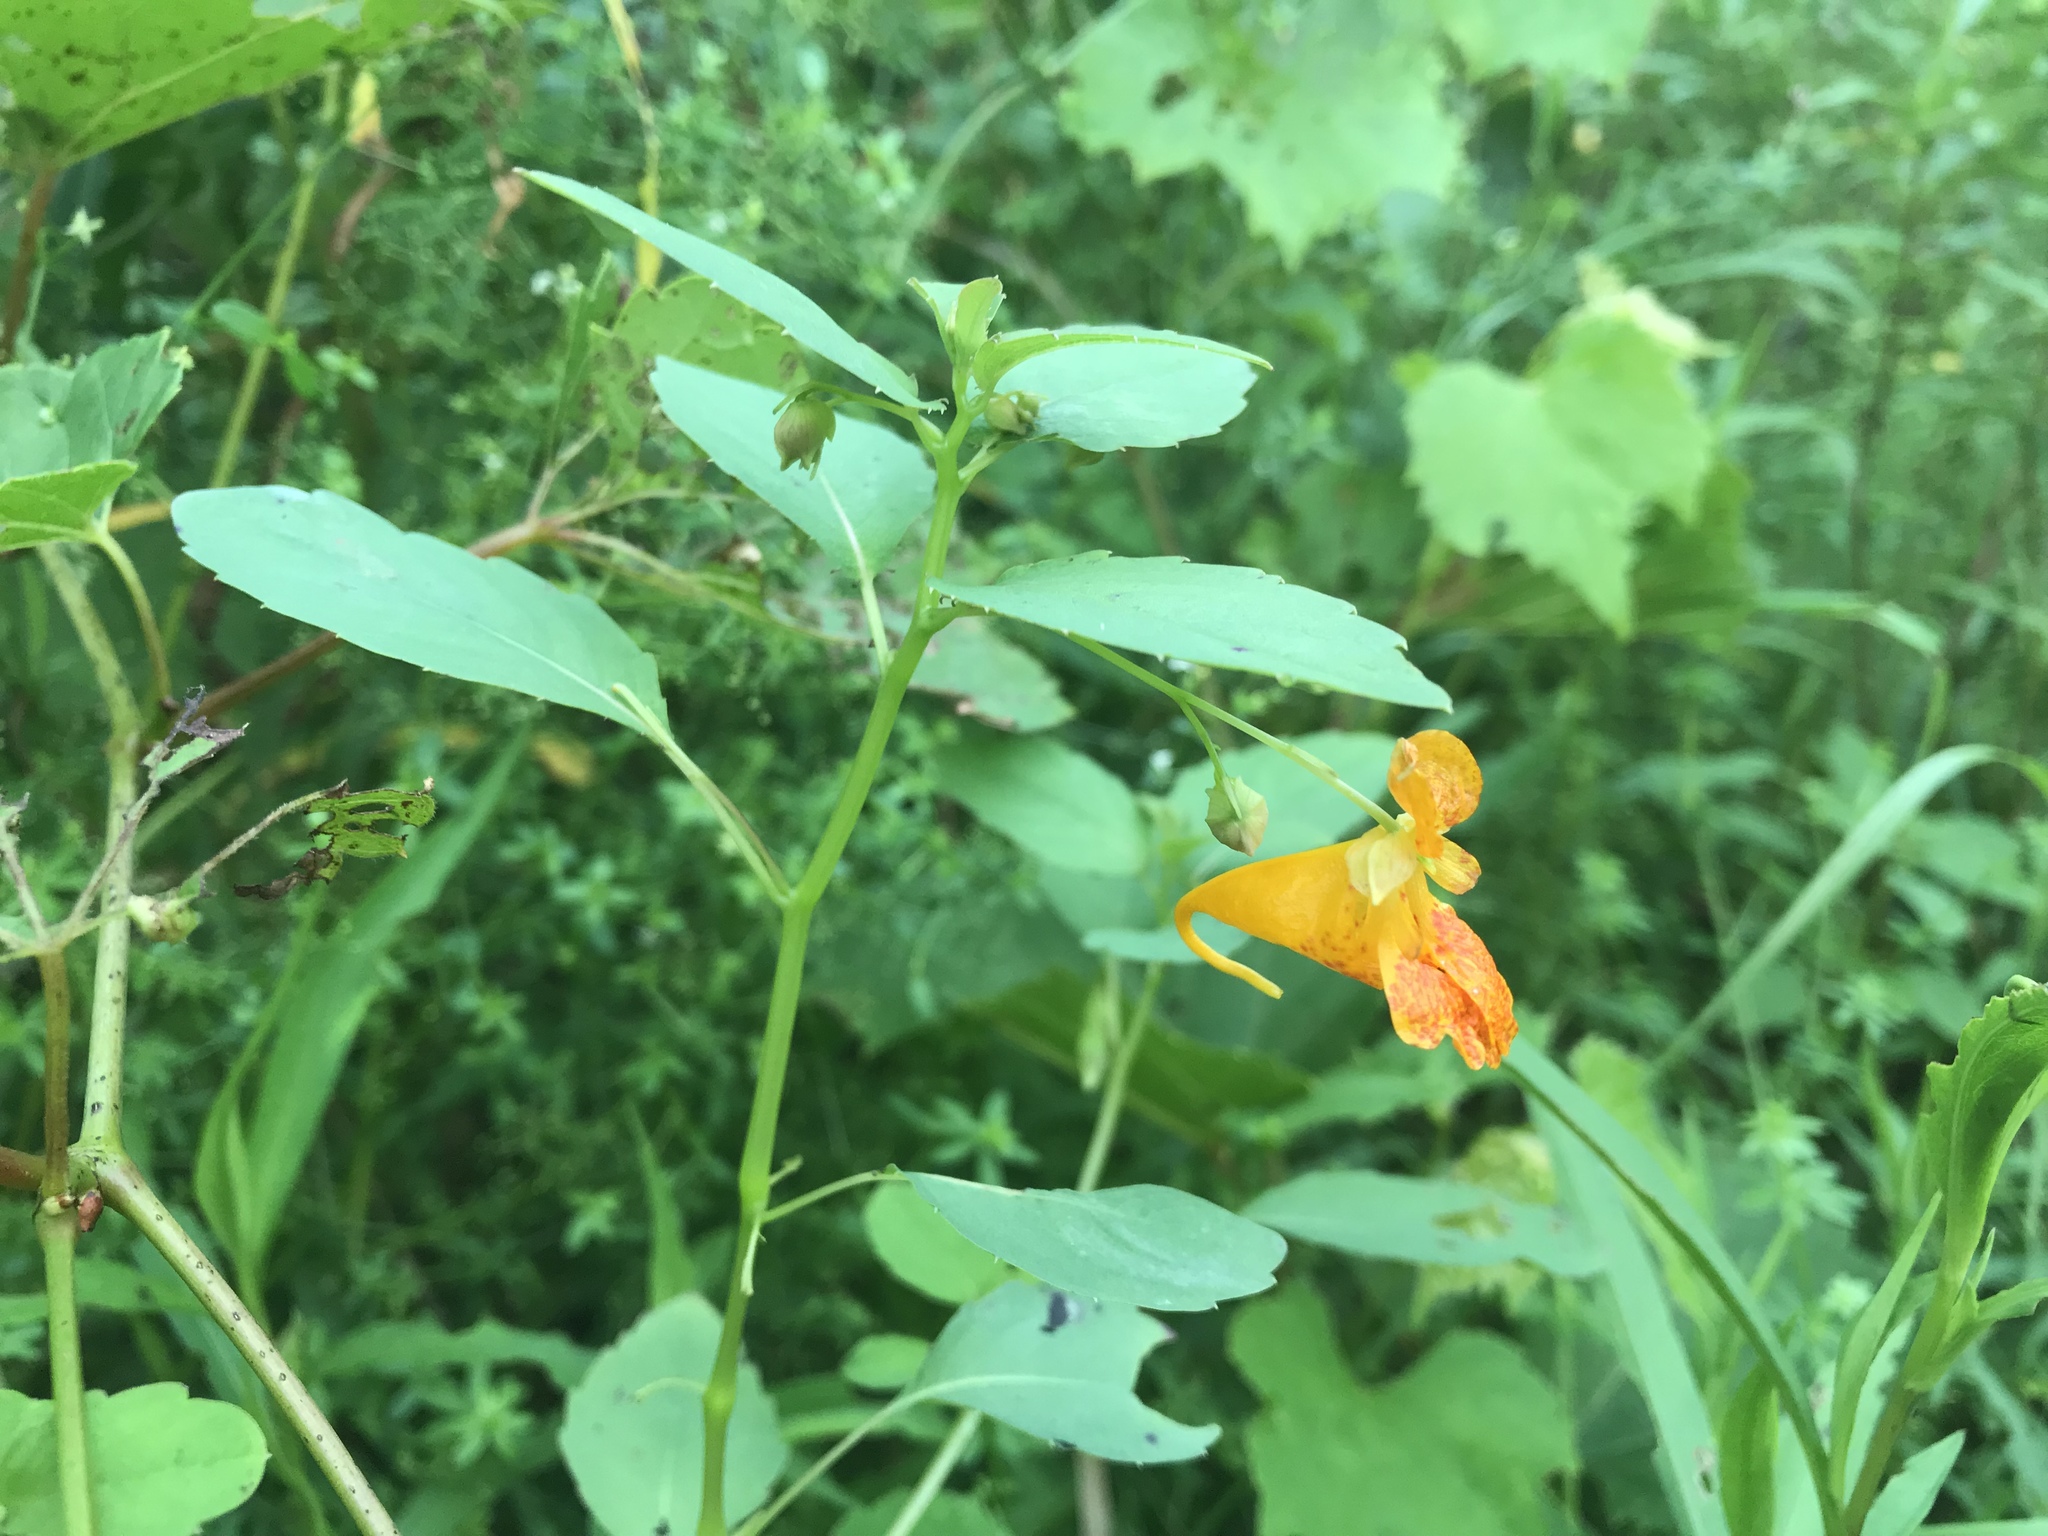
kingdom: Plantae
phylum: Tracheophyta
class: Magnoliopsida
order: Ericales
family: Balsaminaceae
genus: Impatiens
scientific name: Impatiens capensis
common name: Orange balsam
